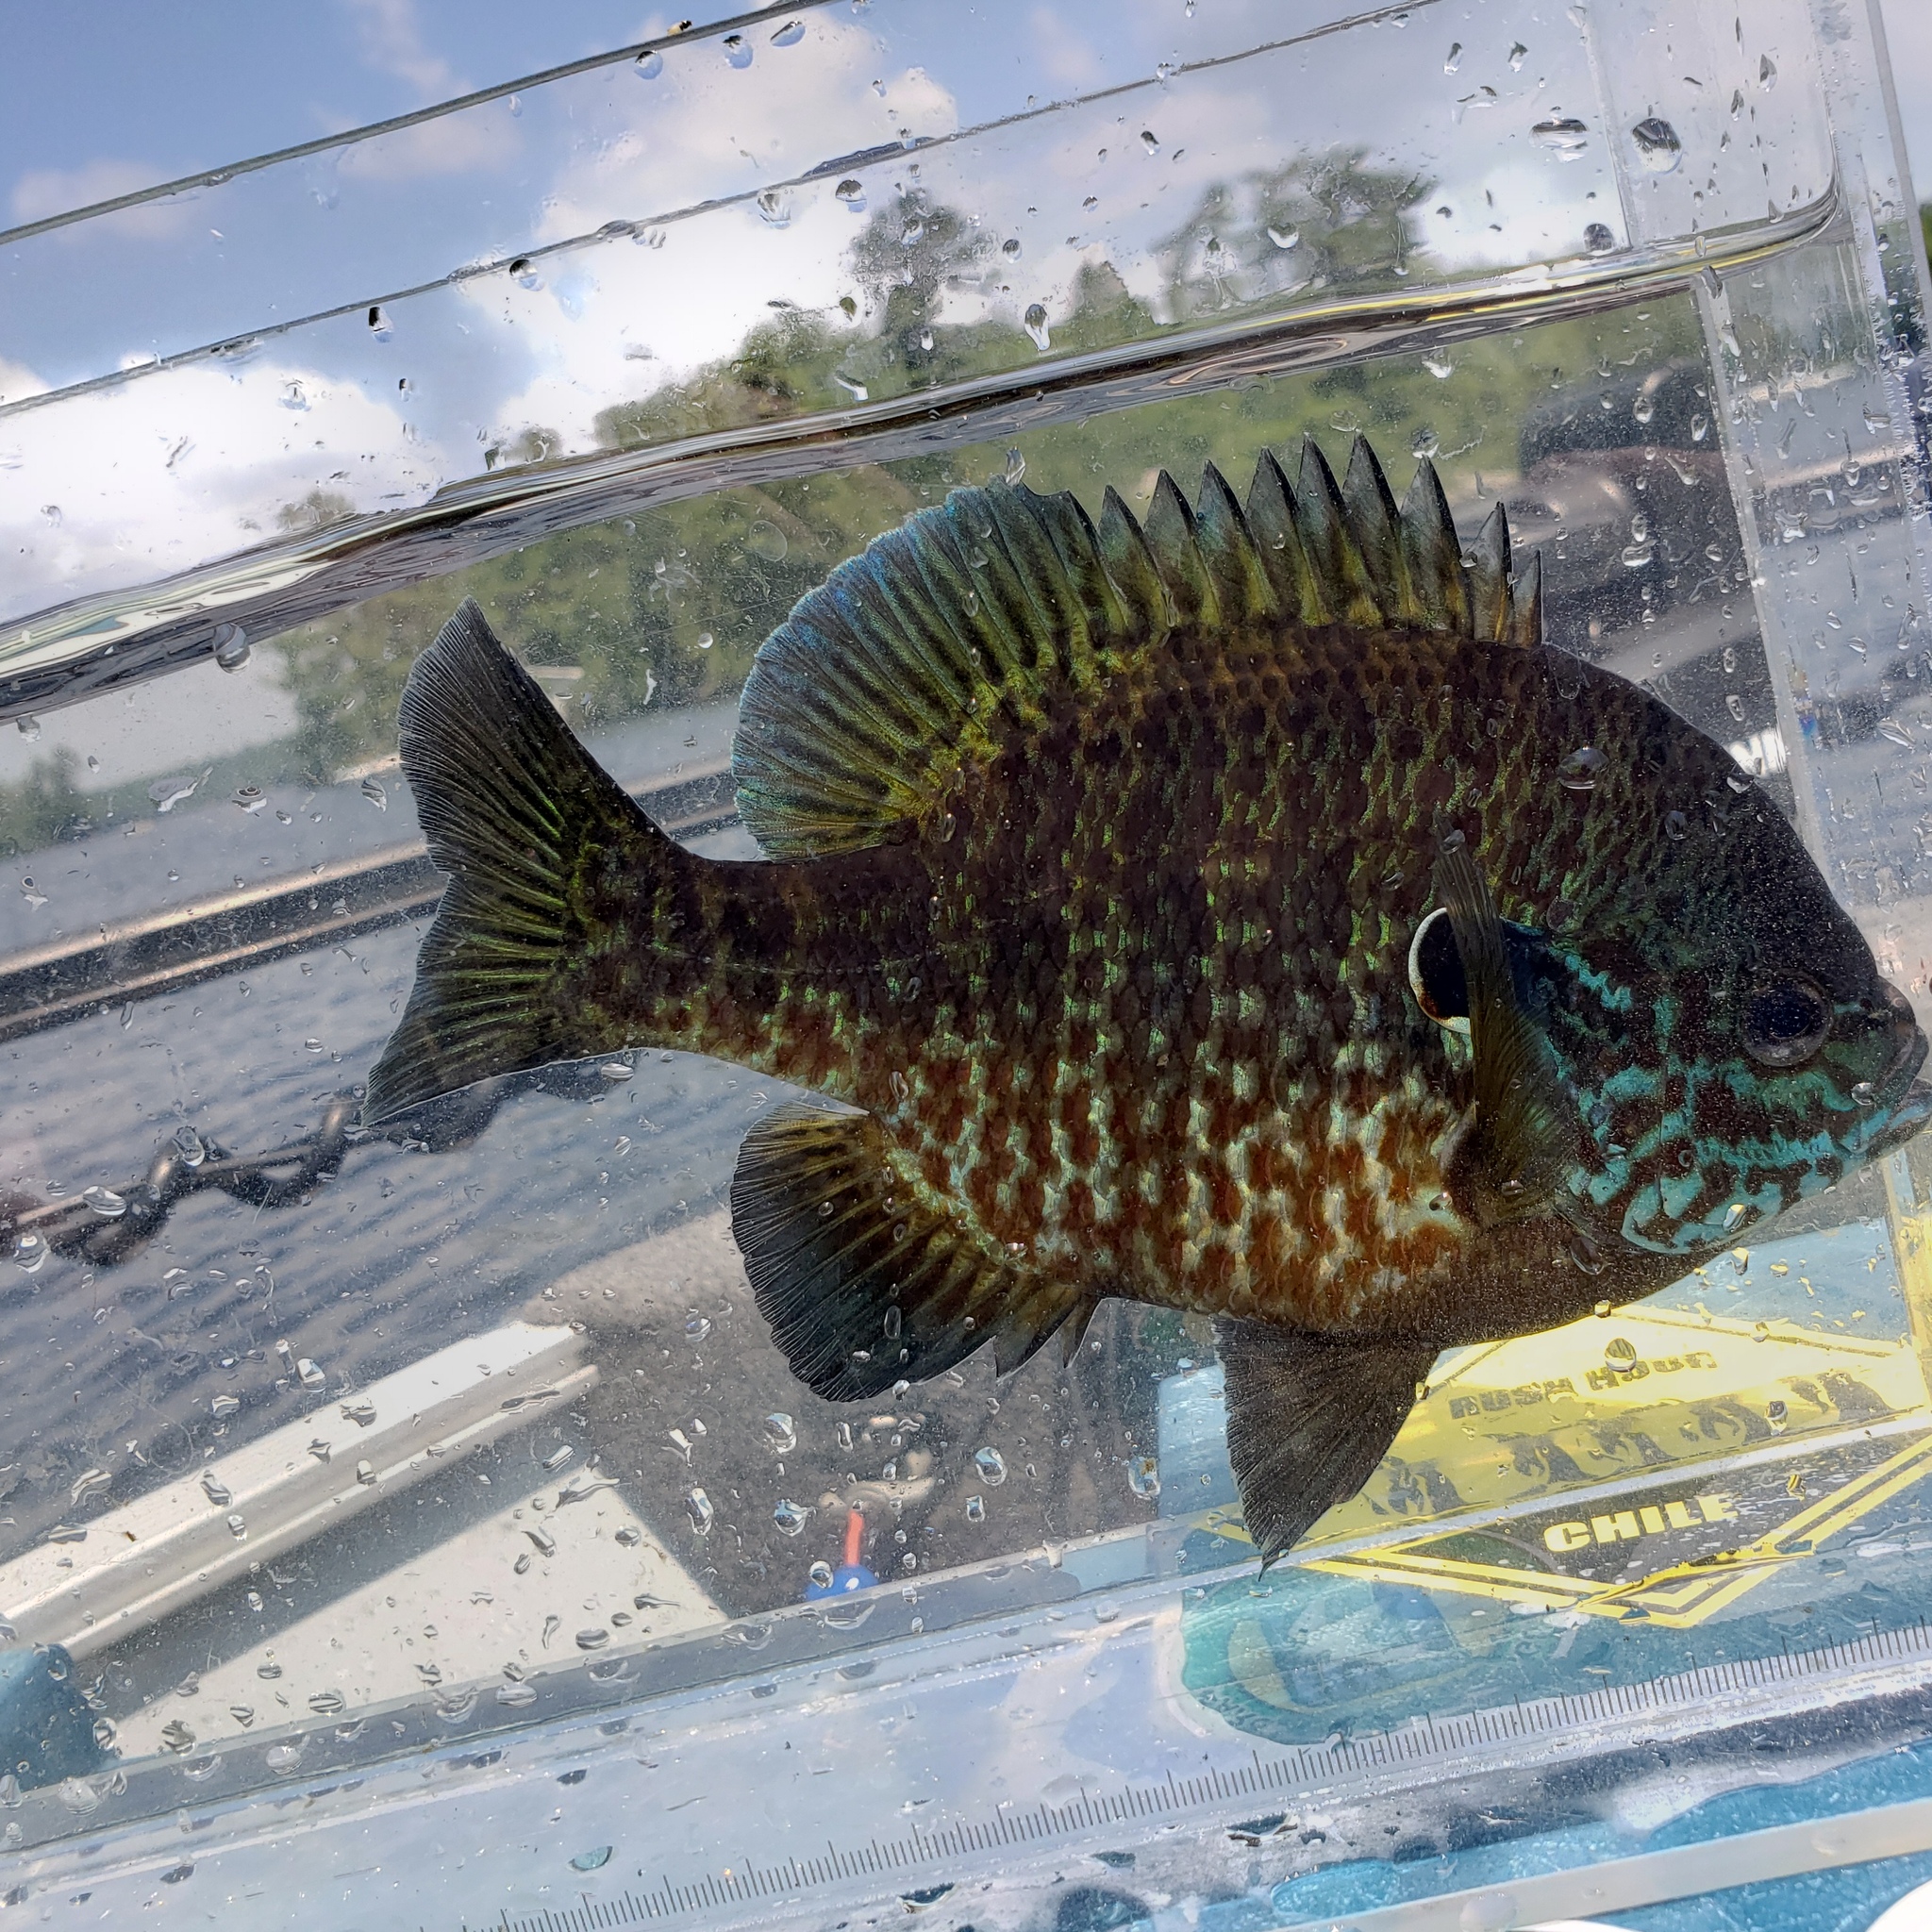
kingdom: Animalia
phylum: Chordata
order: Perciformes
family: Centrarchidae
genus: Lepomis
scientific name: Lepomis
